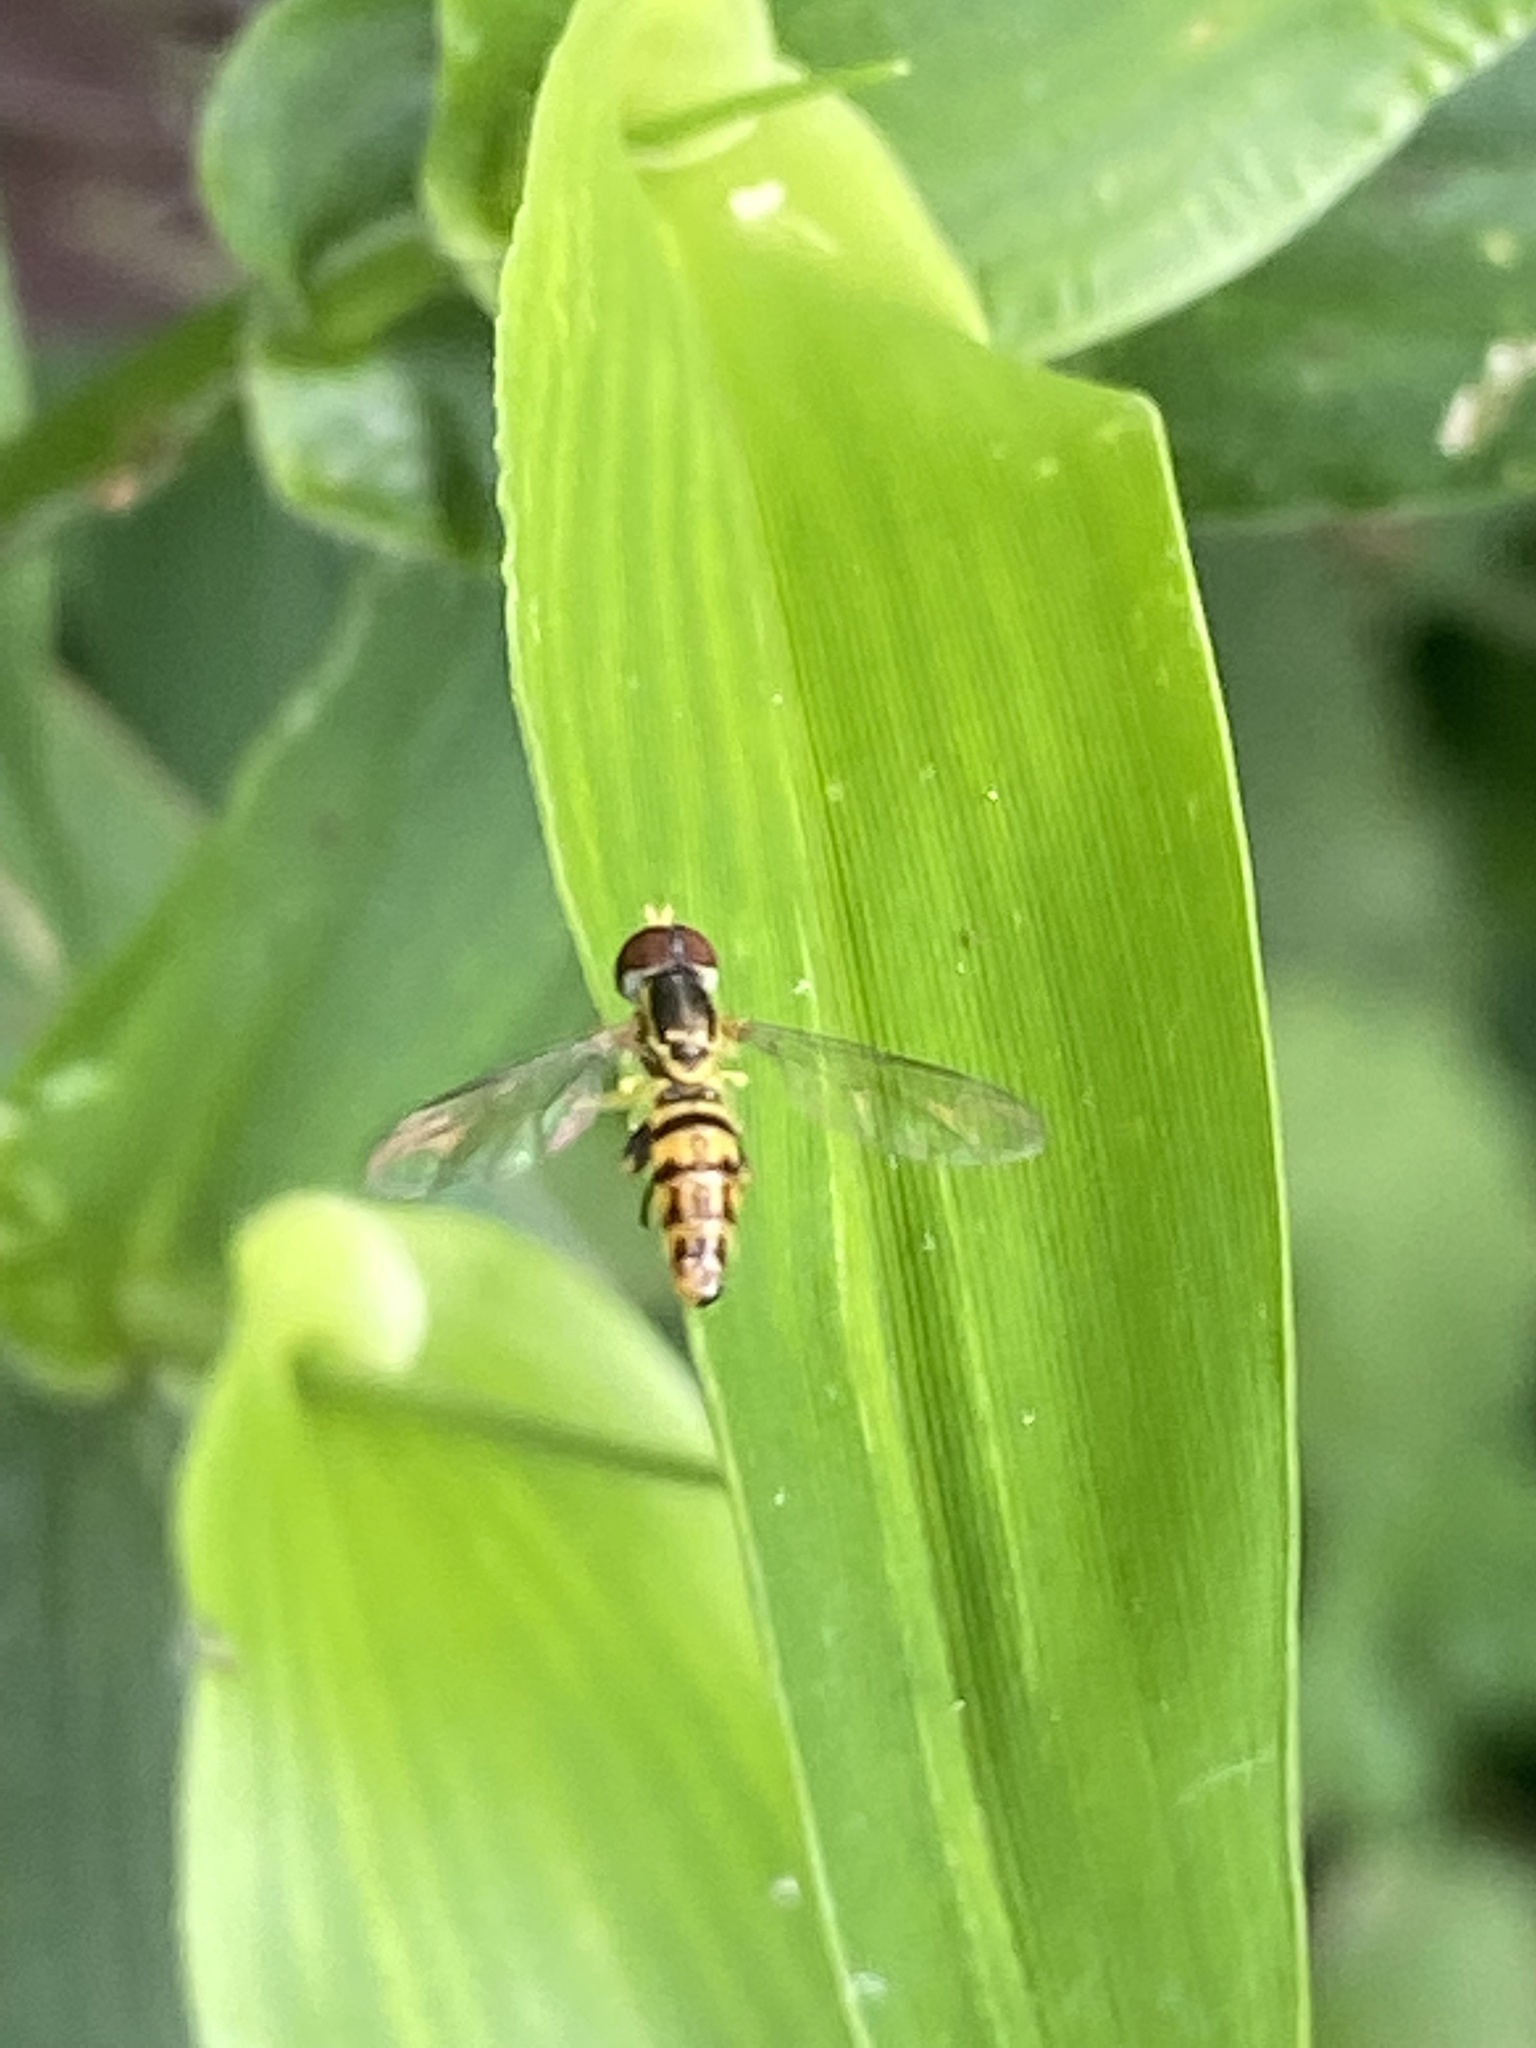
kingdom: Animalia
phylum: Arthropoda
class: Insecta
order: Diptera
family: Syrphidae
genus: Toxomerus
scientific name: Toxomerus geminatus
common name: Eastern calligrapher
